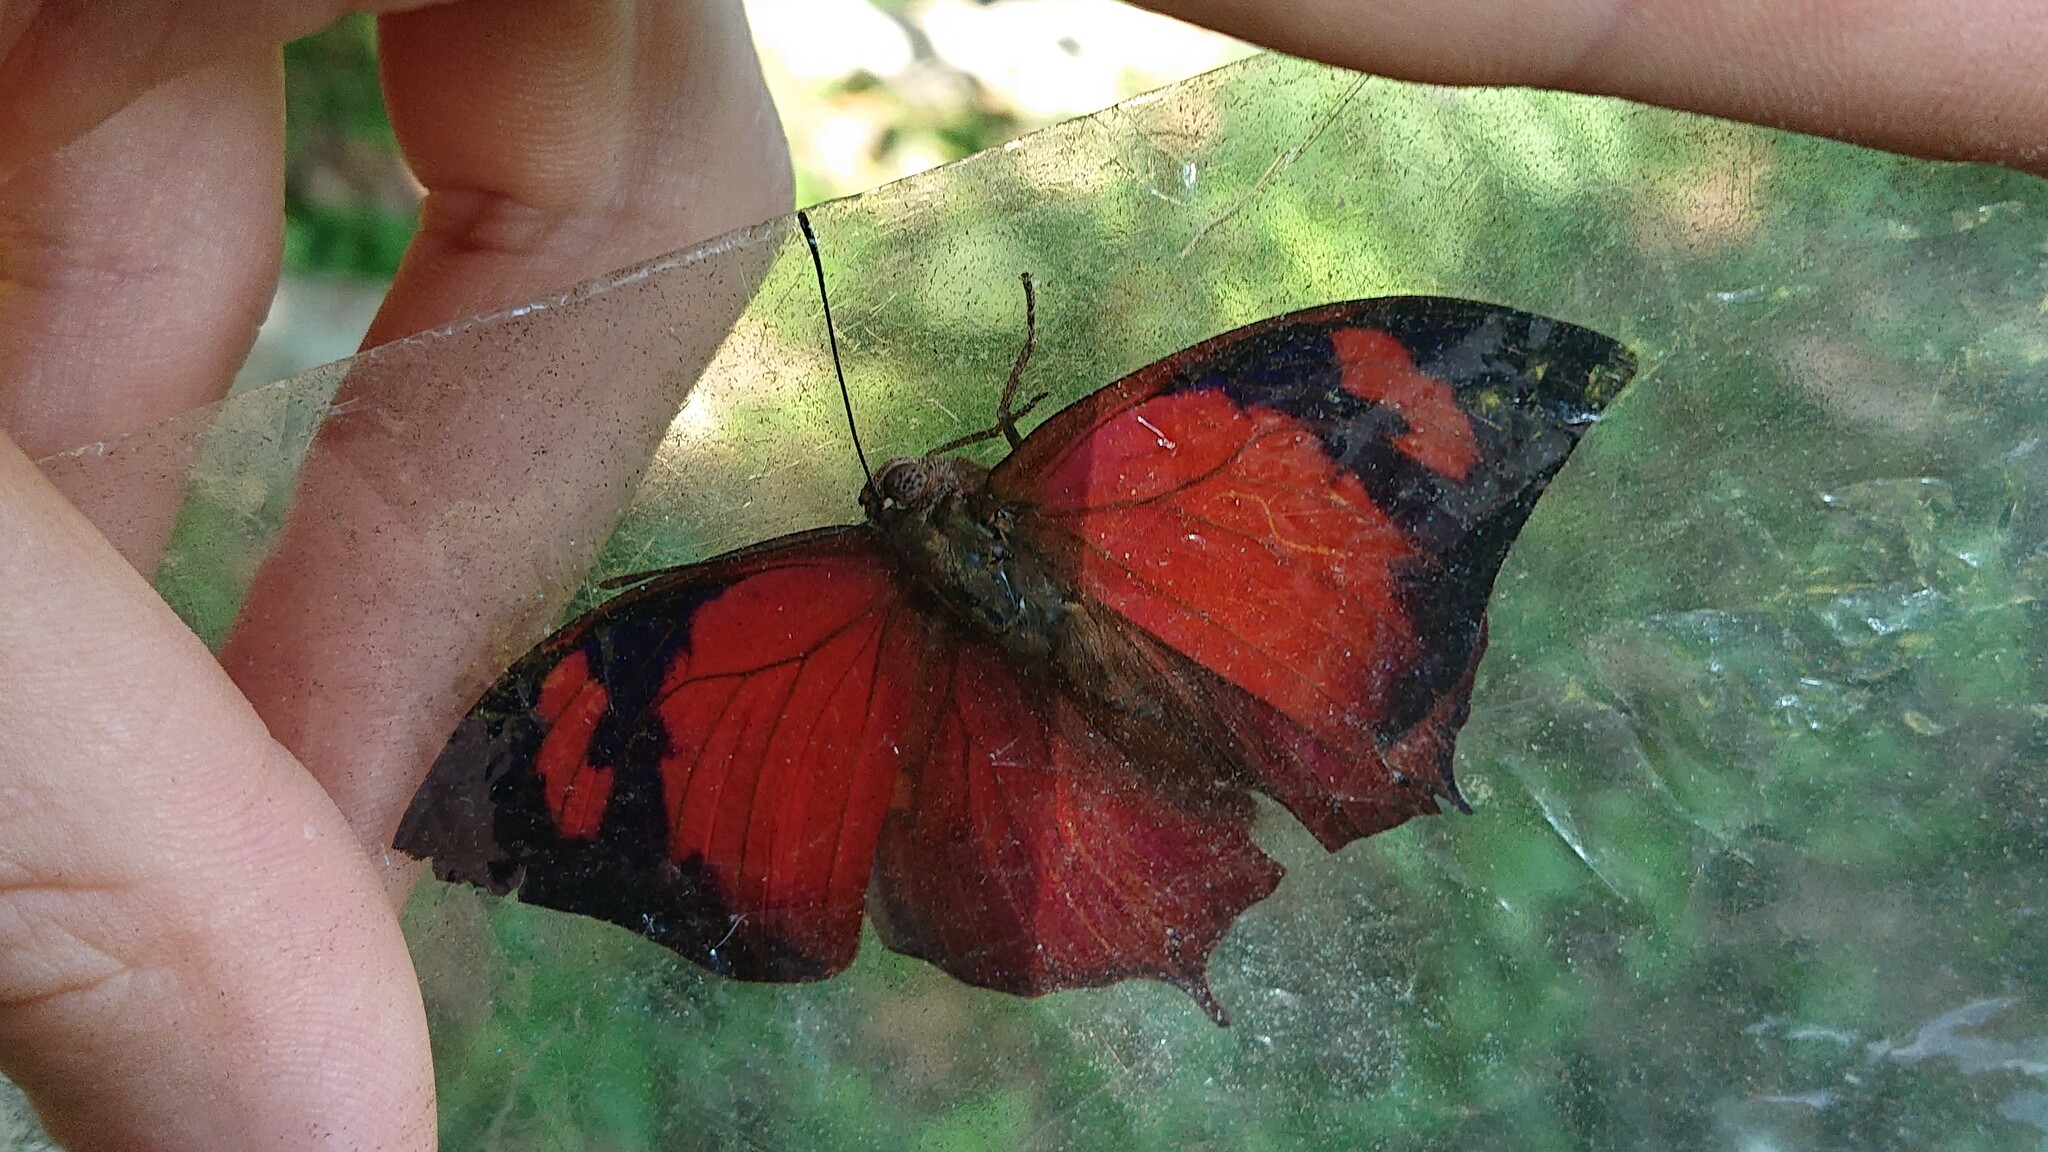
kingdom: Animalia
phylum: Arthropoda
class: Insecta
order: Lepidoptera
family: Nymphalidae
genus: Anaea
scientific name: Anaea ryphea
